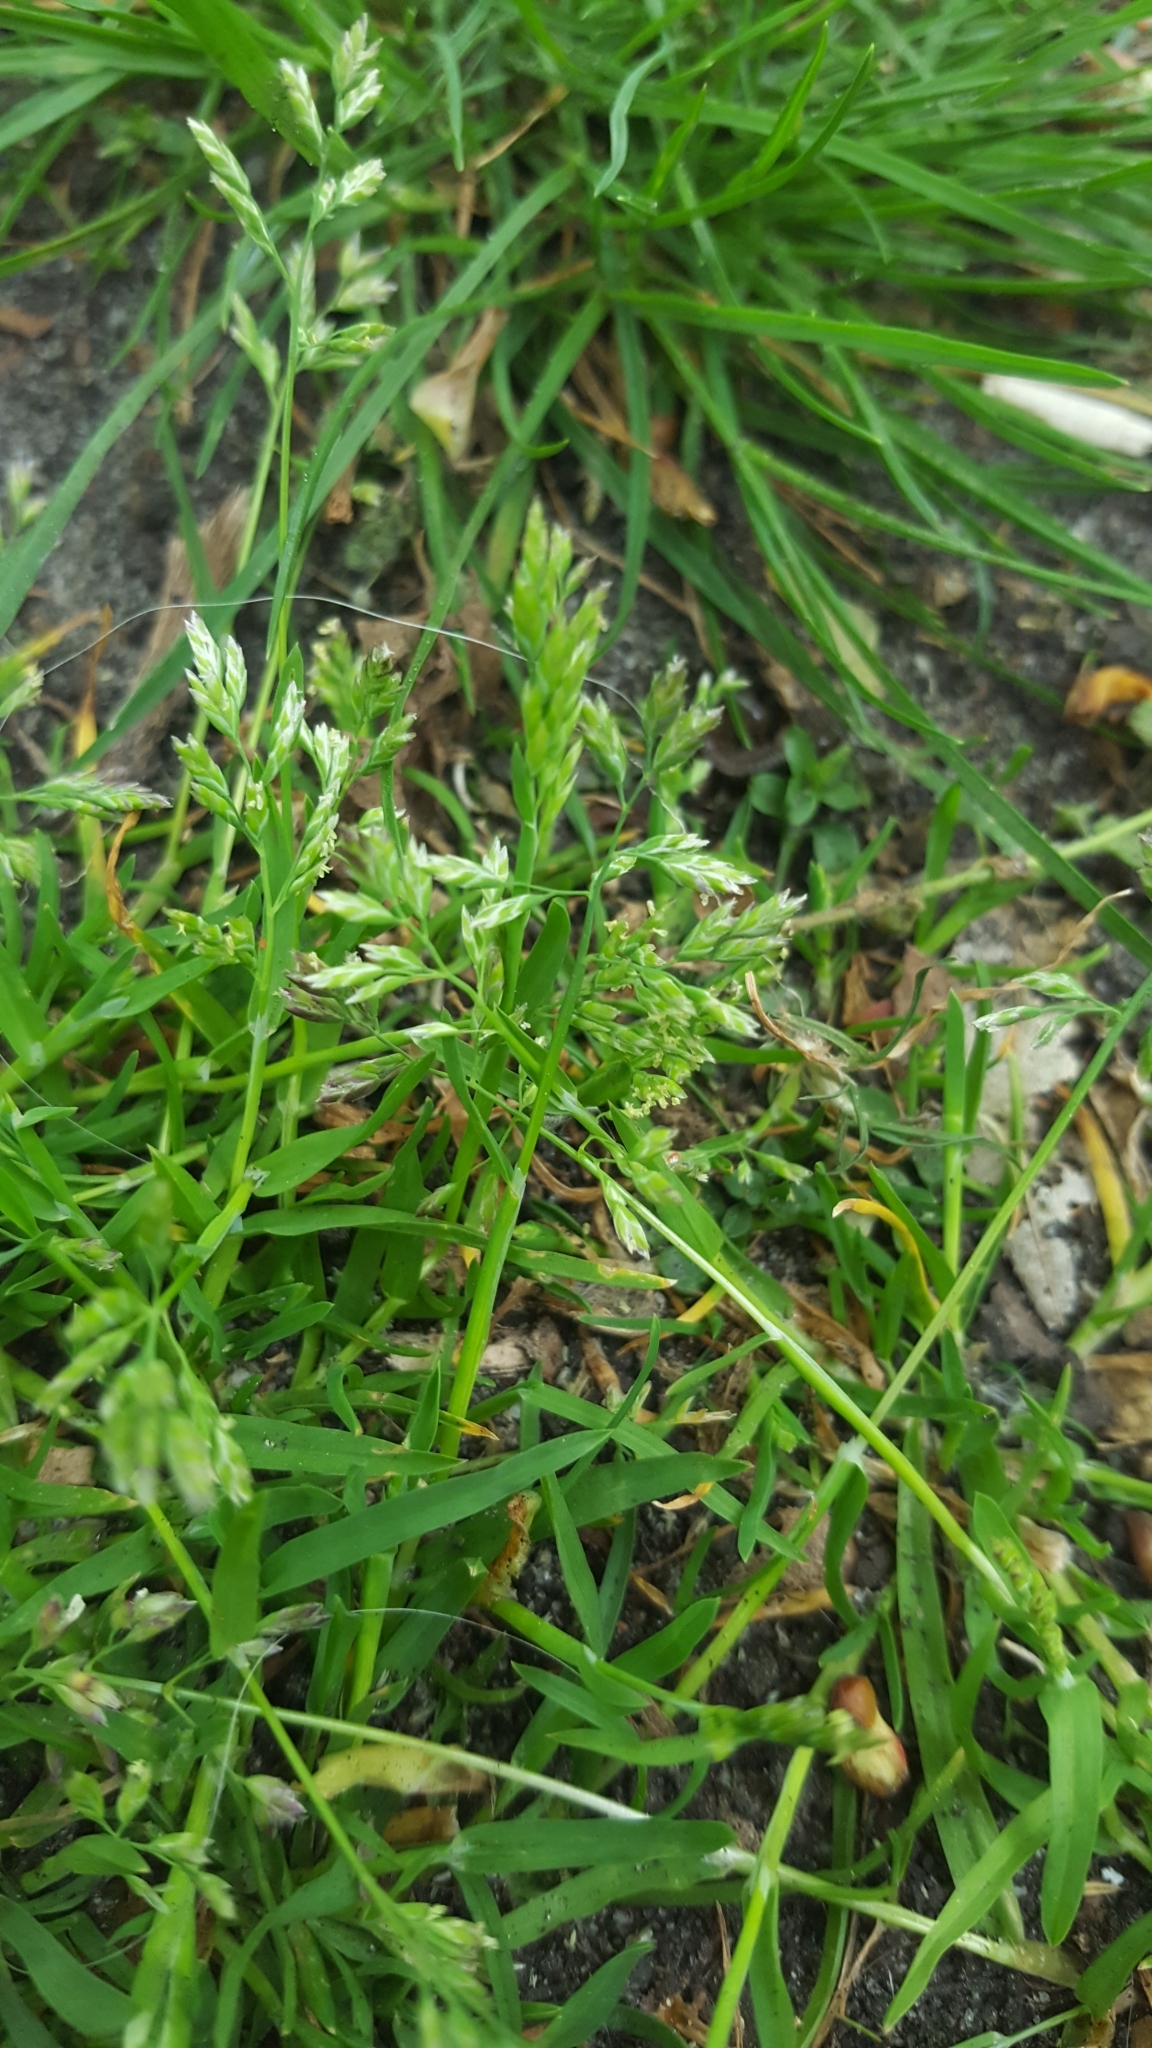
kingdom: Plantae
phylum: Tracheophyta
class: Liliopsida
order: Poales
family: Poaceae
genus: Poa
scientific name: Poa annua
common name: Annual bluegrass
